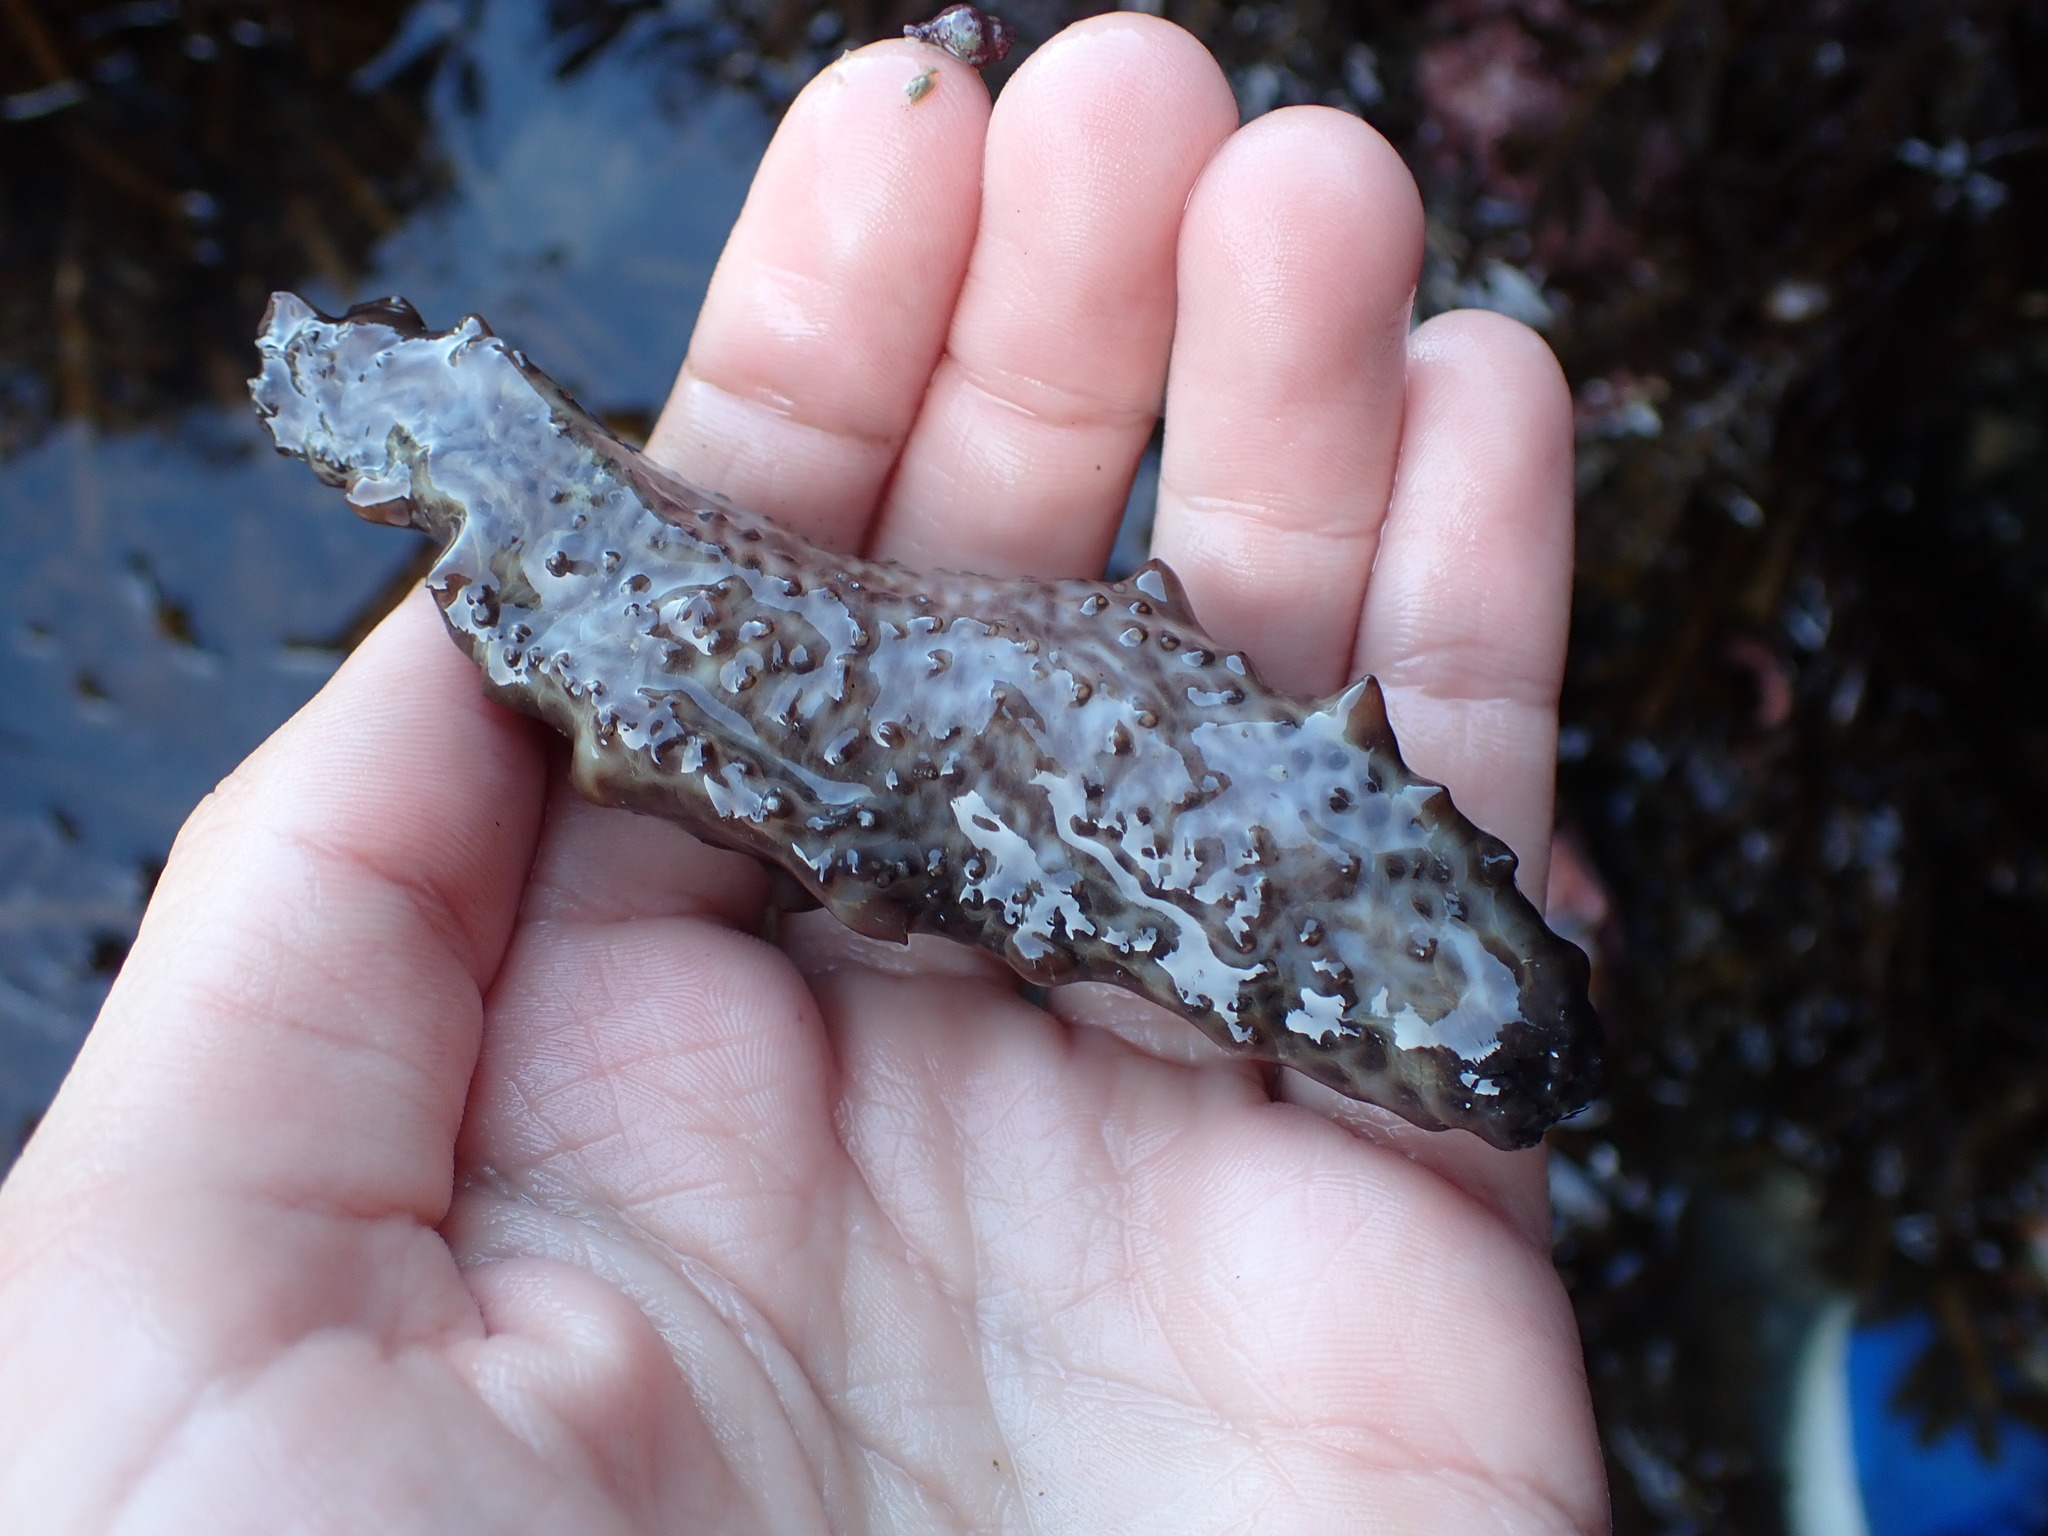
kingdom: Animalia
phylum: Echinodermata
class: Holothuroidea
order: Synallactida
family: Stichopodidae
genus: Australostichopus
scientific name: Australostichopus mollis
